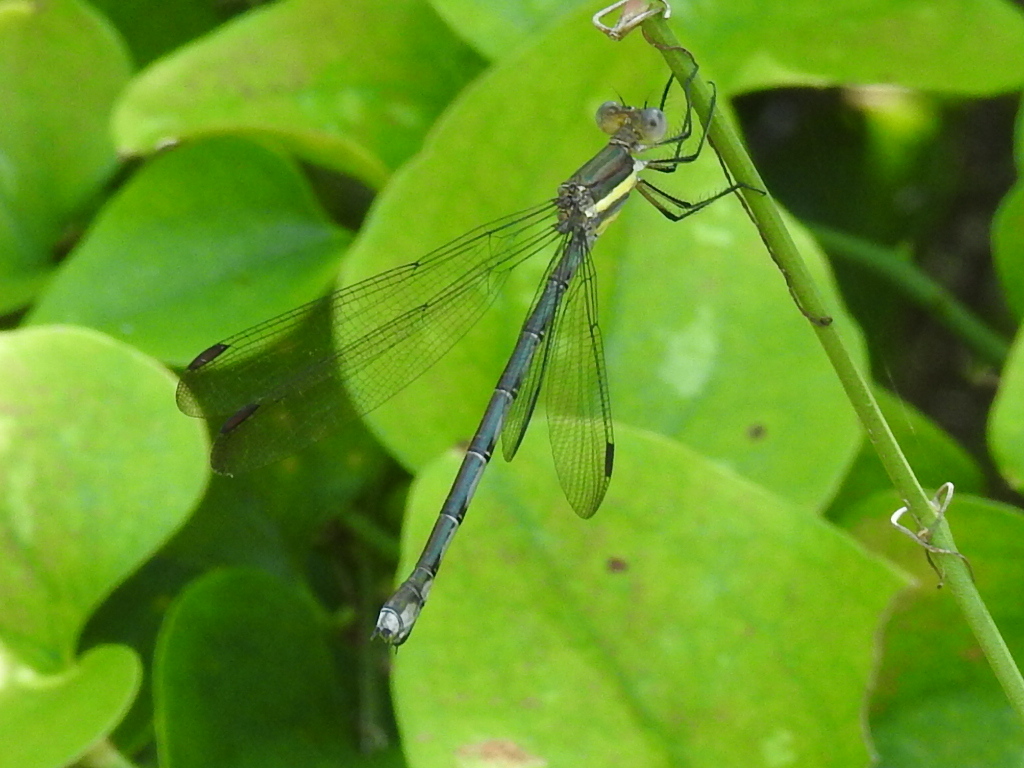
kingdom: Animalia
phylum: Arthropoda
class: Insecta
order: Odonata
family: Lestidae
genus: Archilestes
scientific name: Archilestes grandis
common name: Great spreadwing
